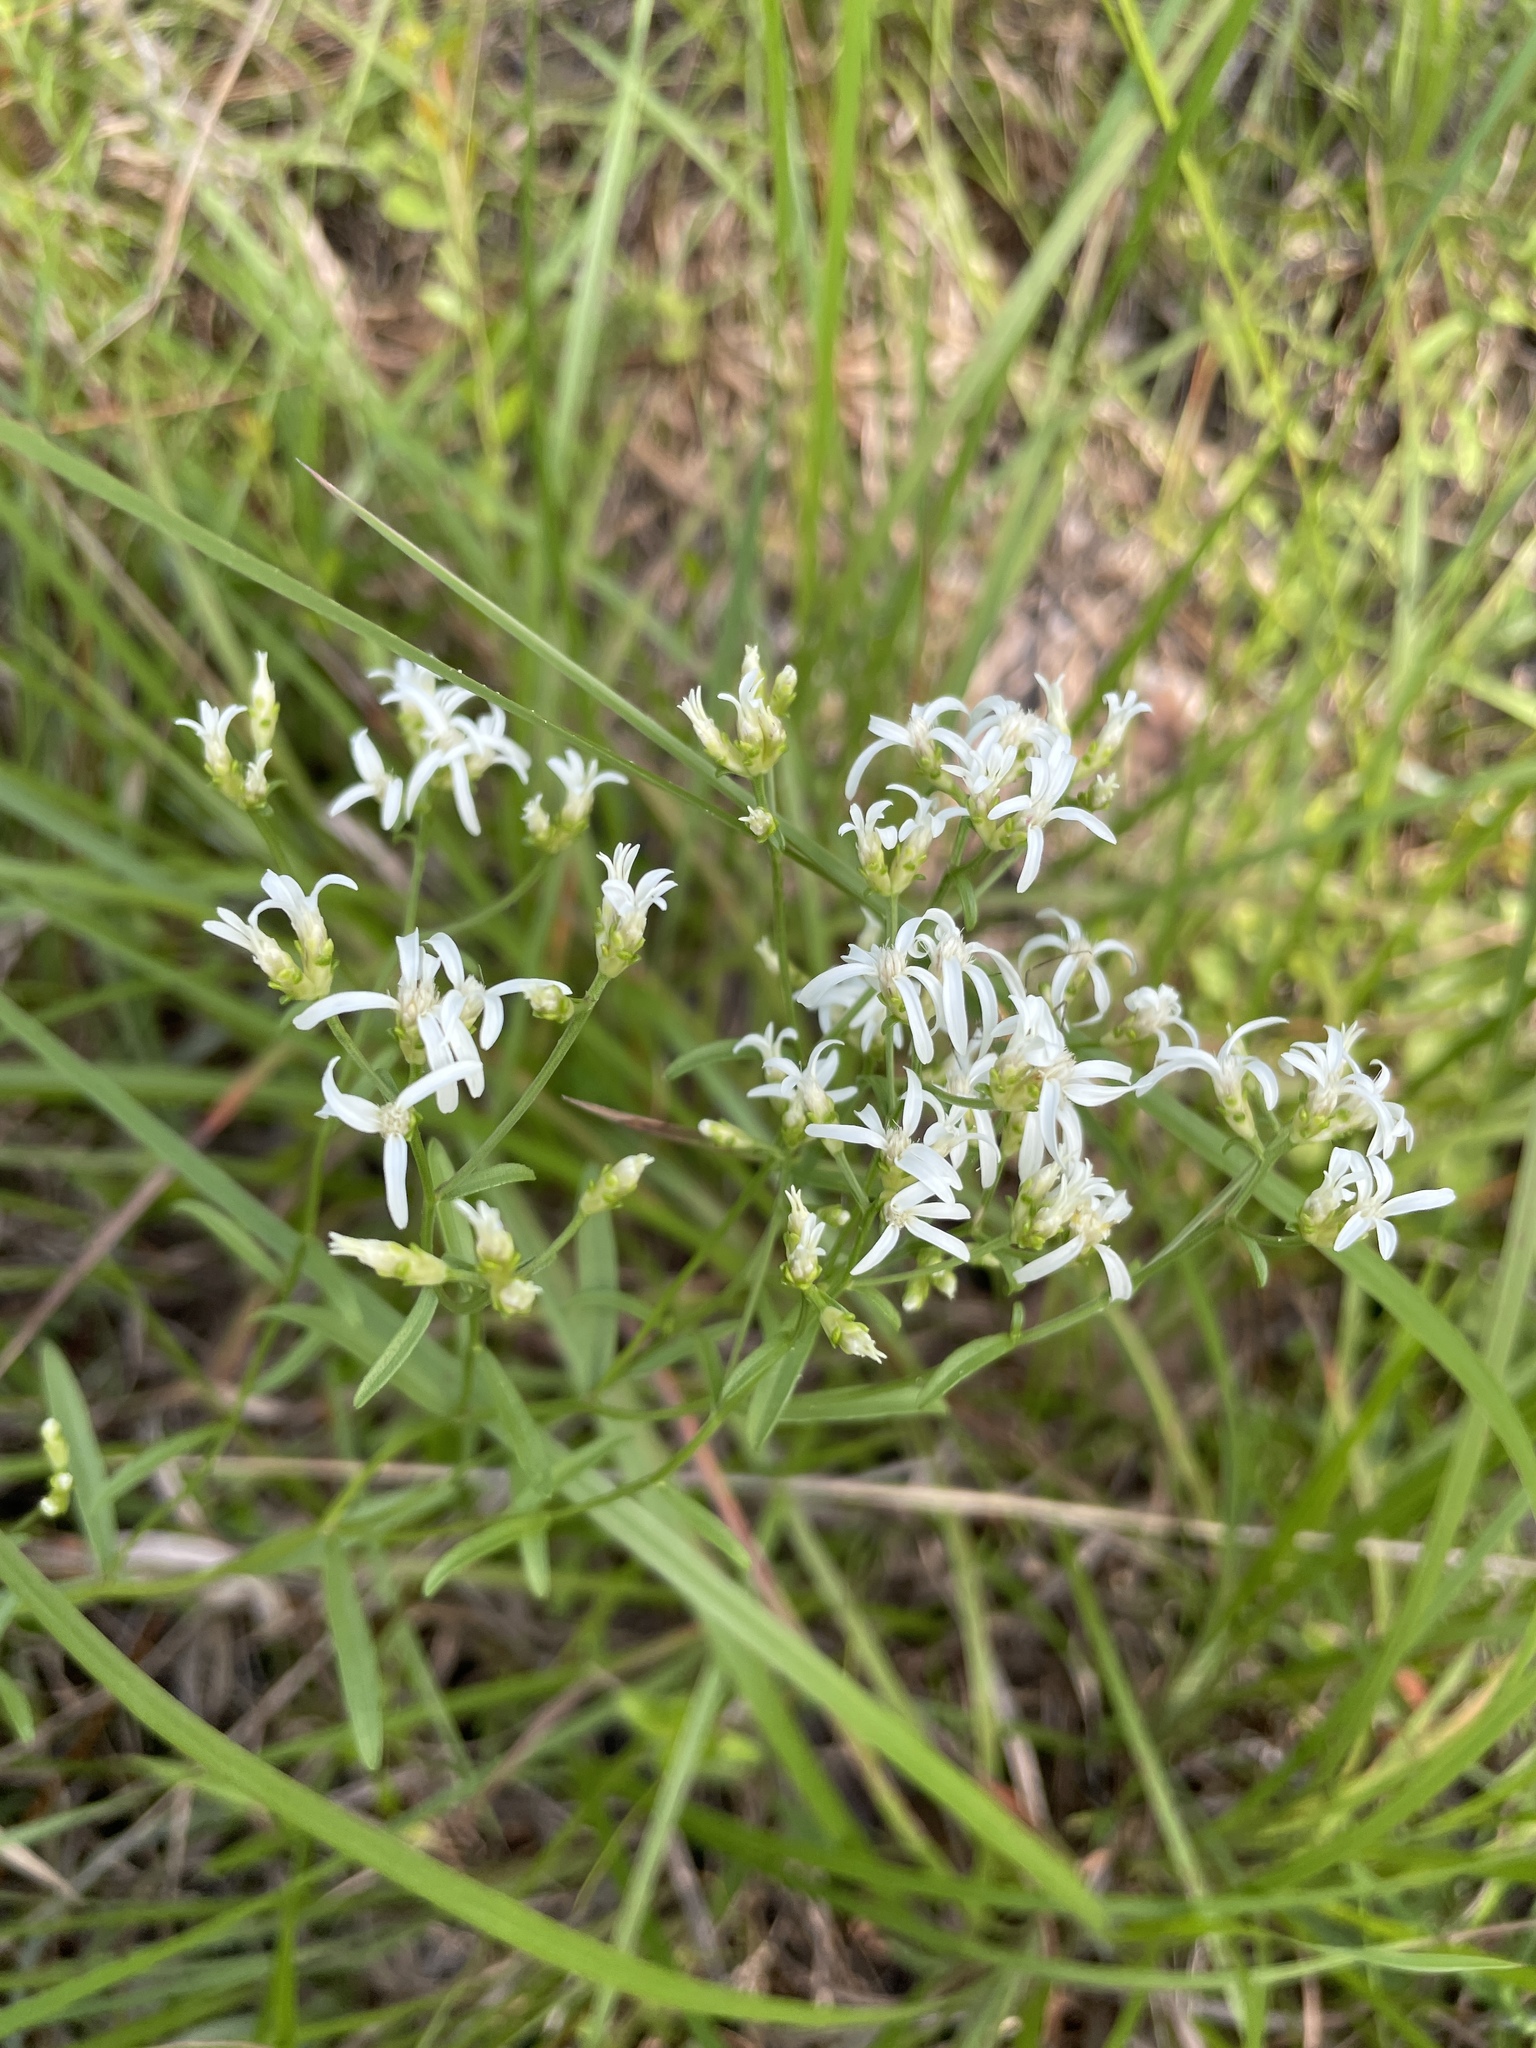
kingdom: Plantae
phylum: Tracheophyta
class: Magnoliopsida
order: Asterales
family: Asteraceae
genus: Sericocarpus
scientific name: Sericocarpus linifolius
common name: Narrow-leaf aster
